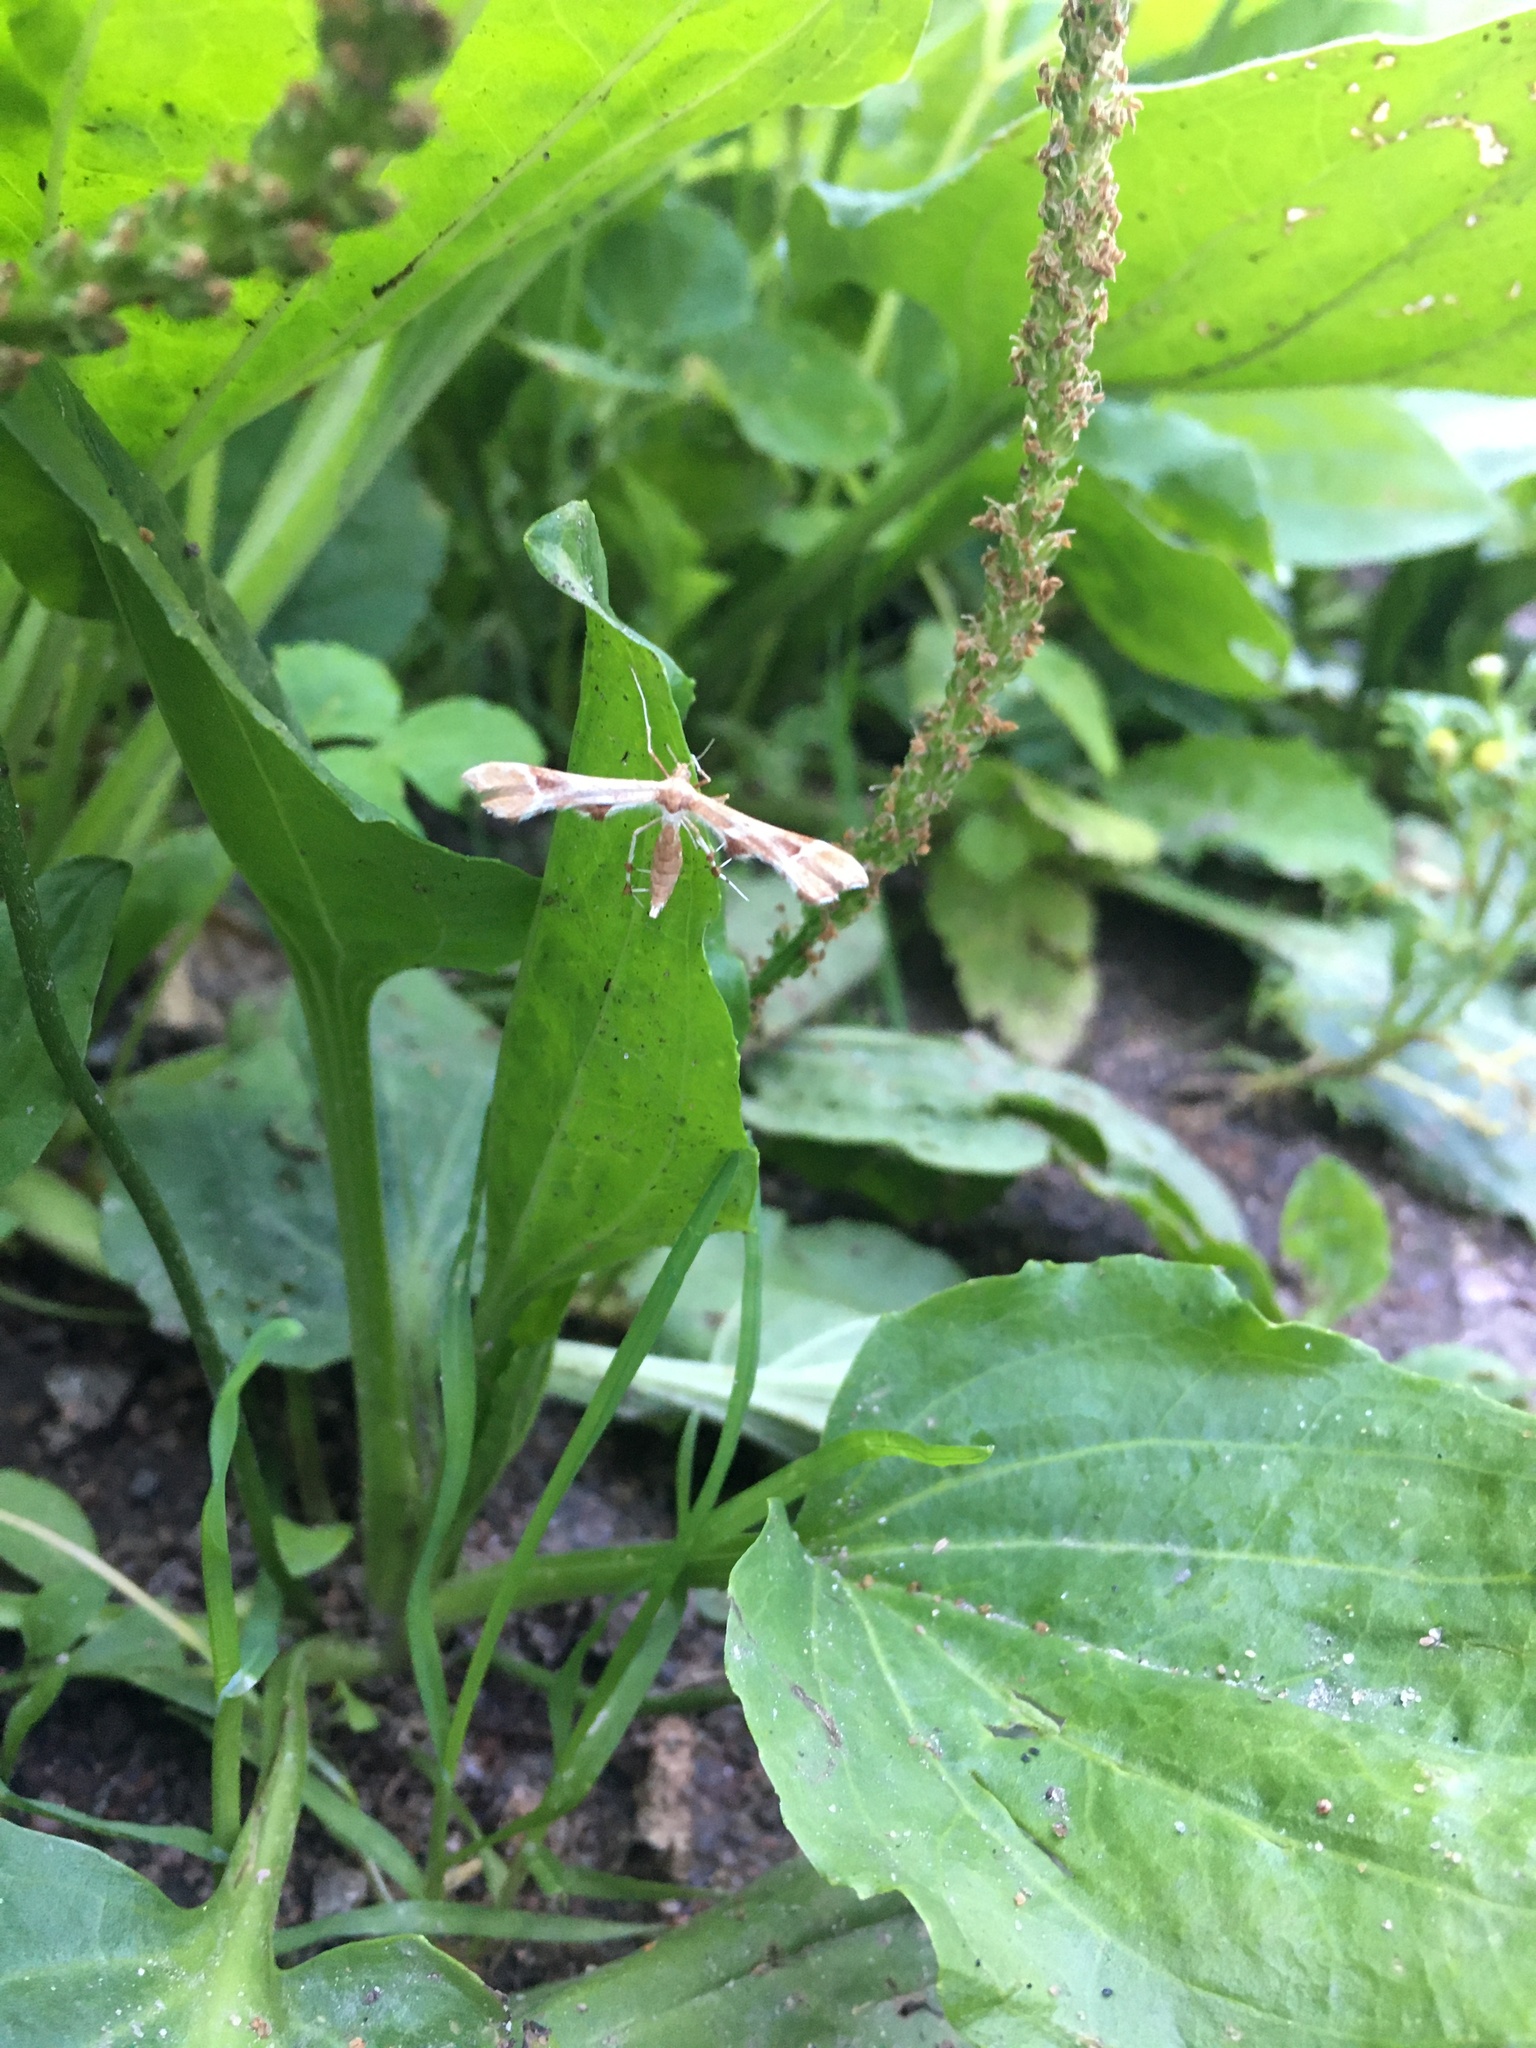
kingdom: Animalia
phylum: Arthropoda
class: Insecta
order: Lepidoptera
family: Pterophoridae
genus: Cnaemidophorus
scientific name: Cnaemidophorus rhododactyla
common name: Rose plume
